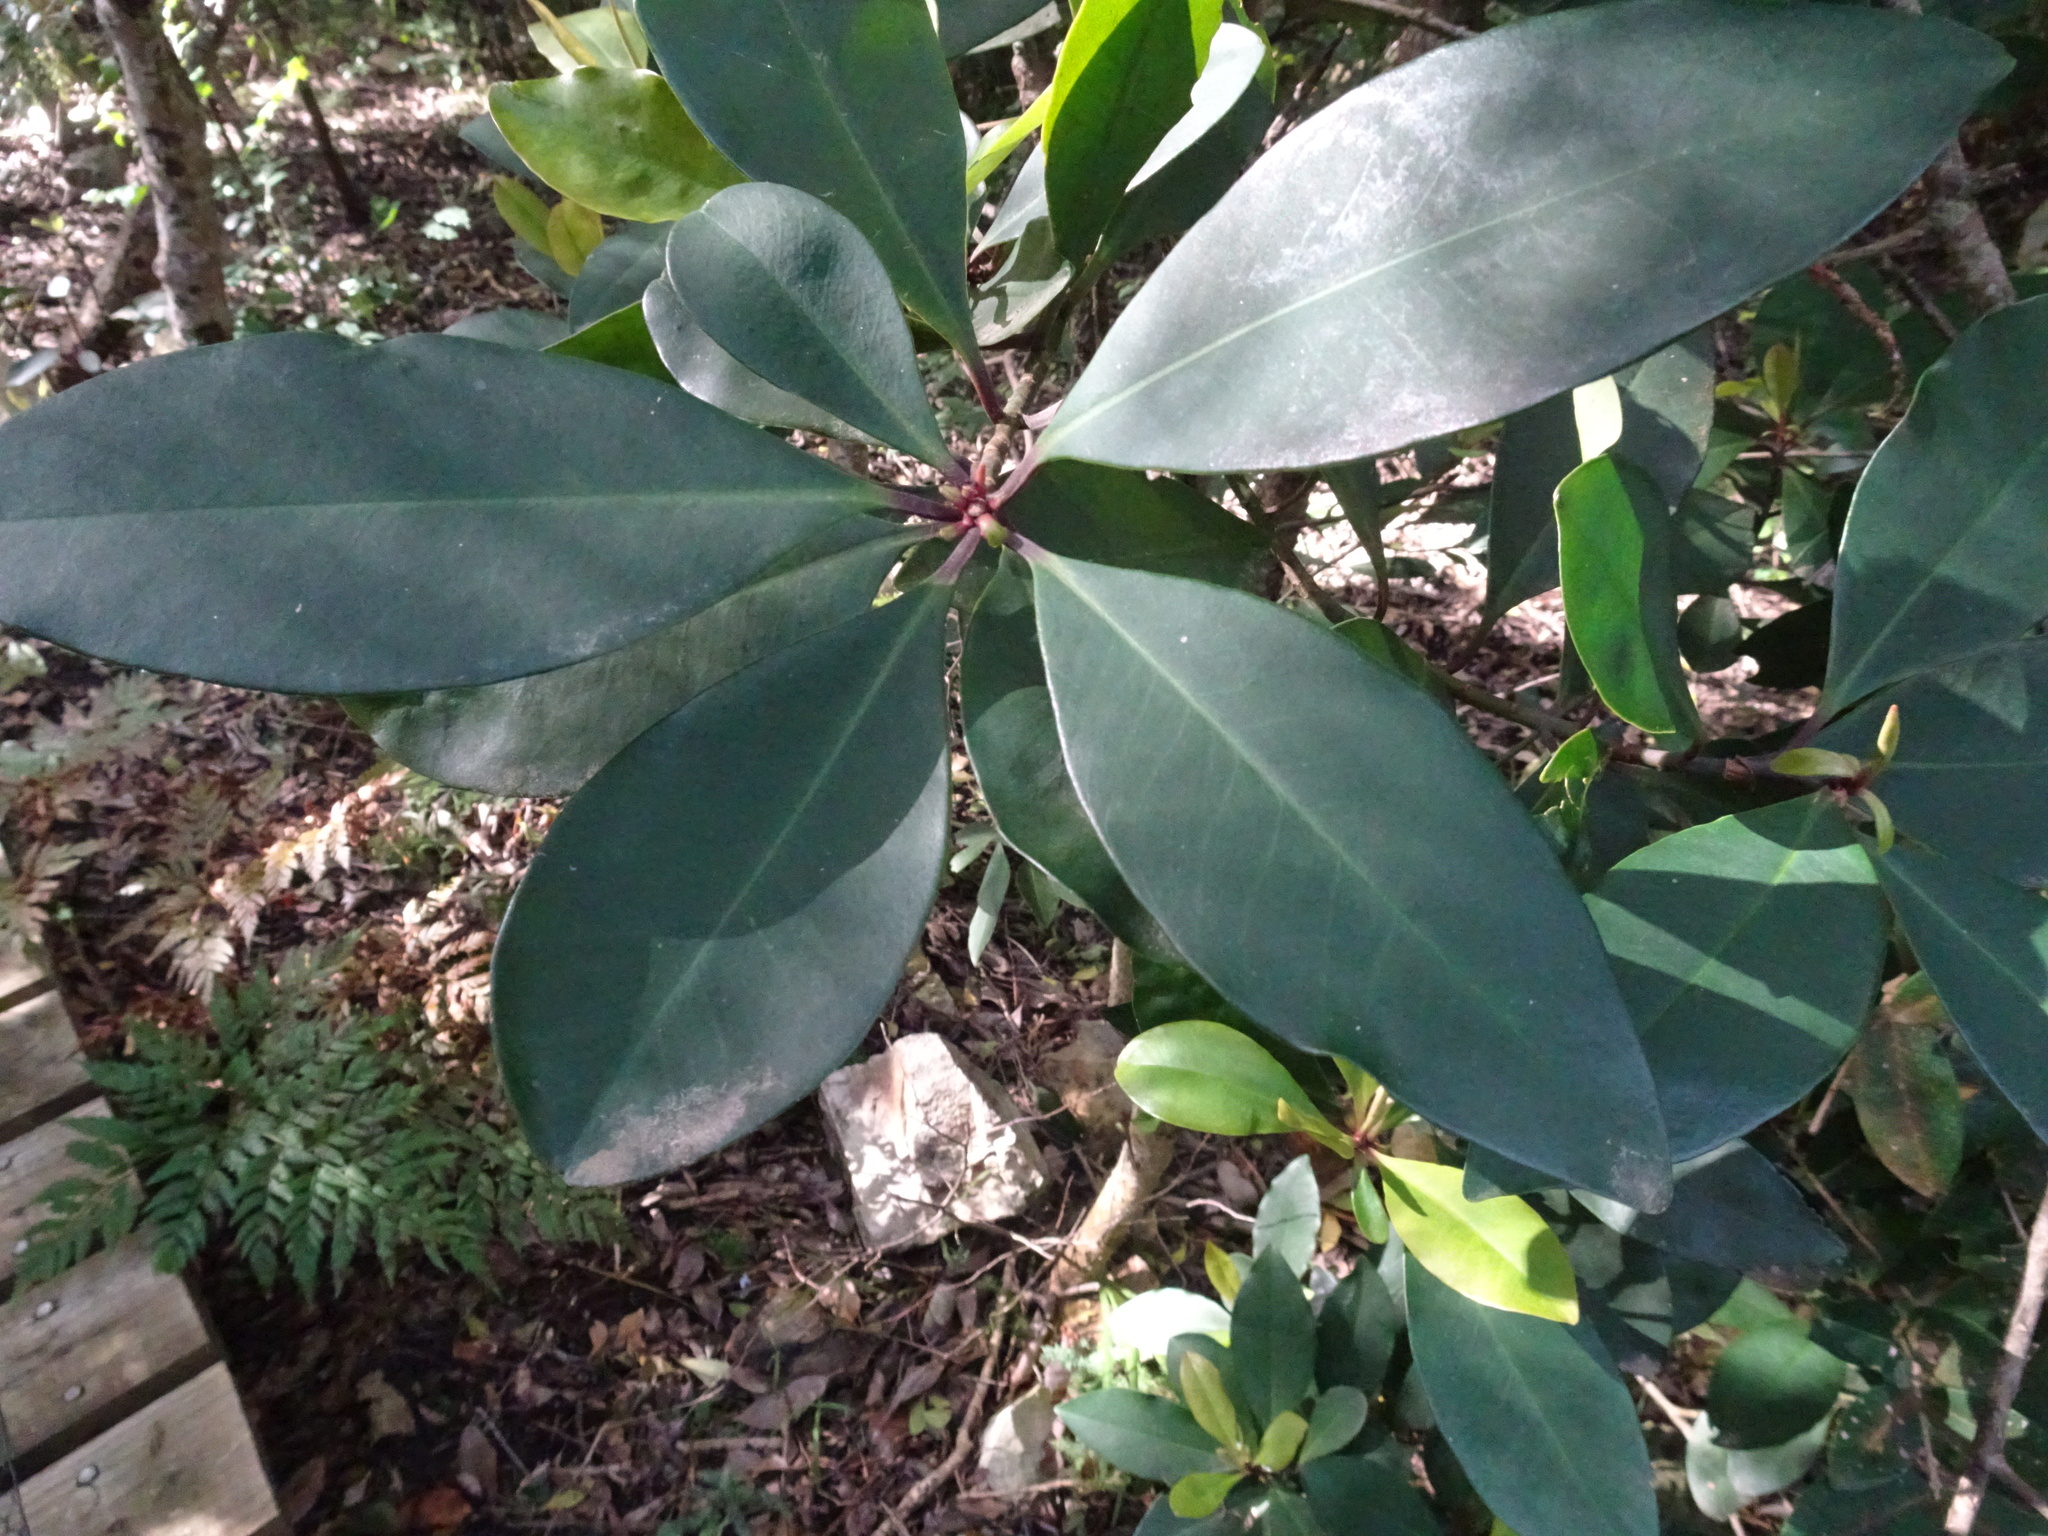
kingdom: Plantae
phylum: Tracheophyta
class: Magnoliopsida
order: Ericales
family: Primulaceae
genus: Myrsine
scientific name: Myrsine melanophloeos
